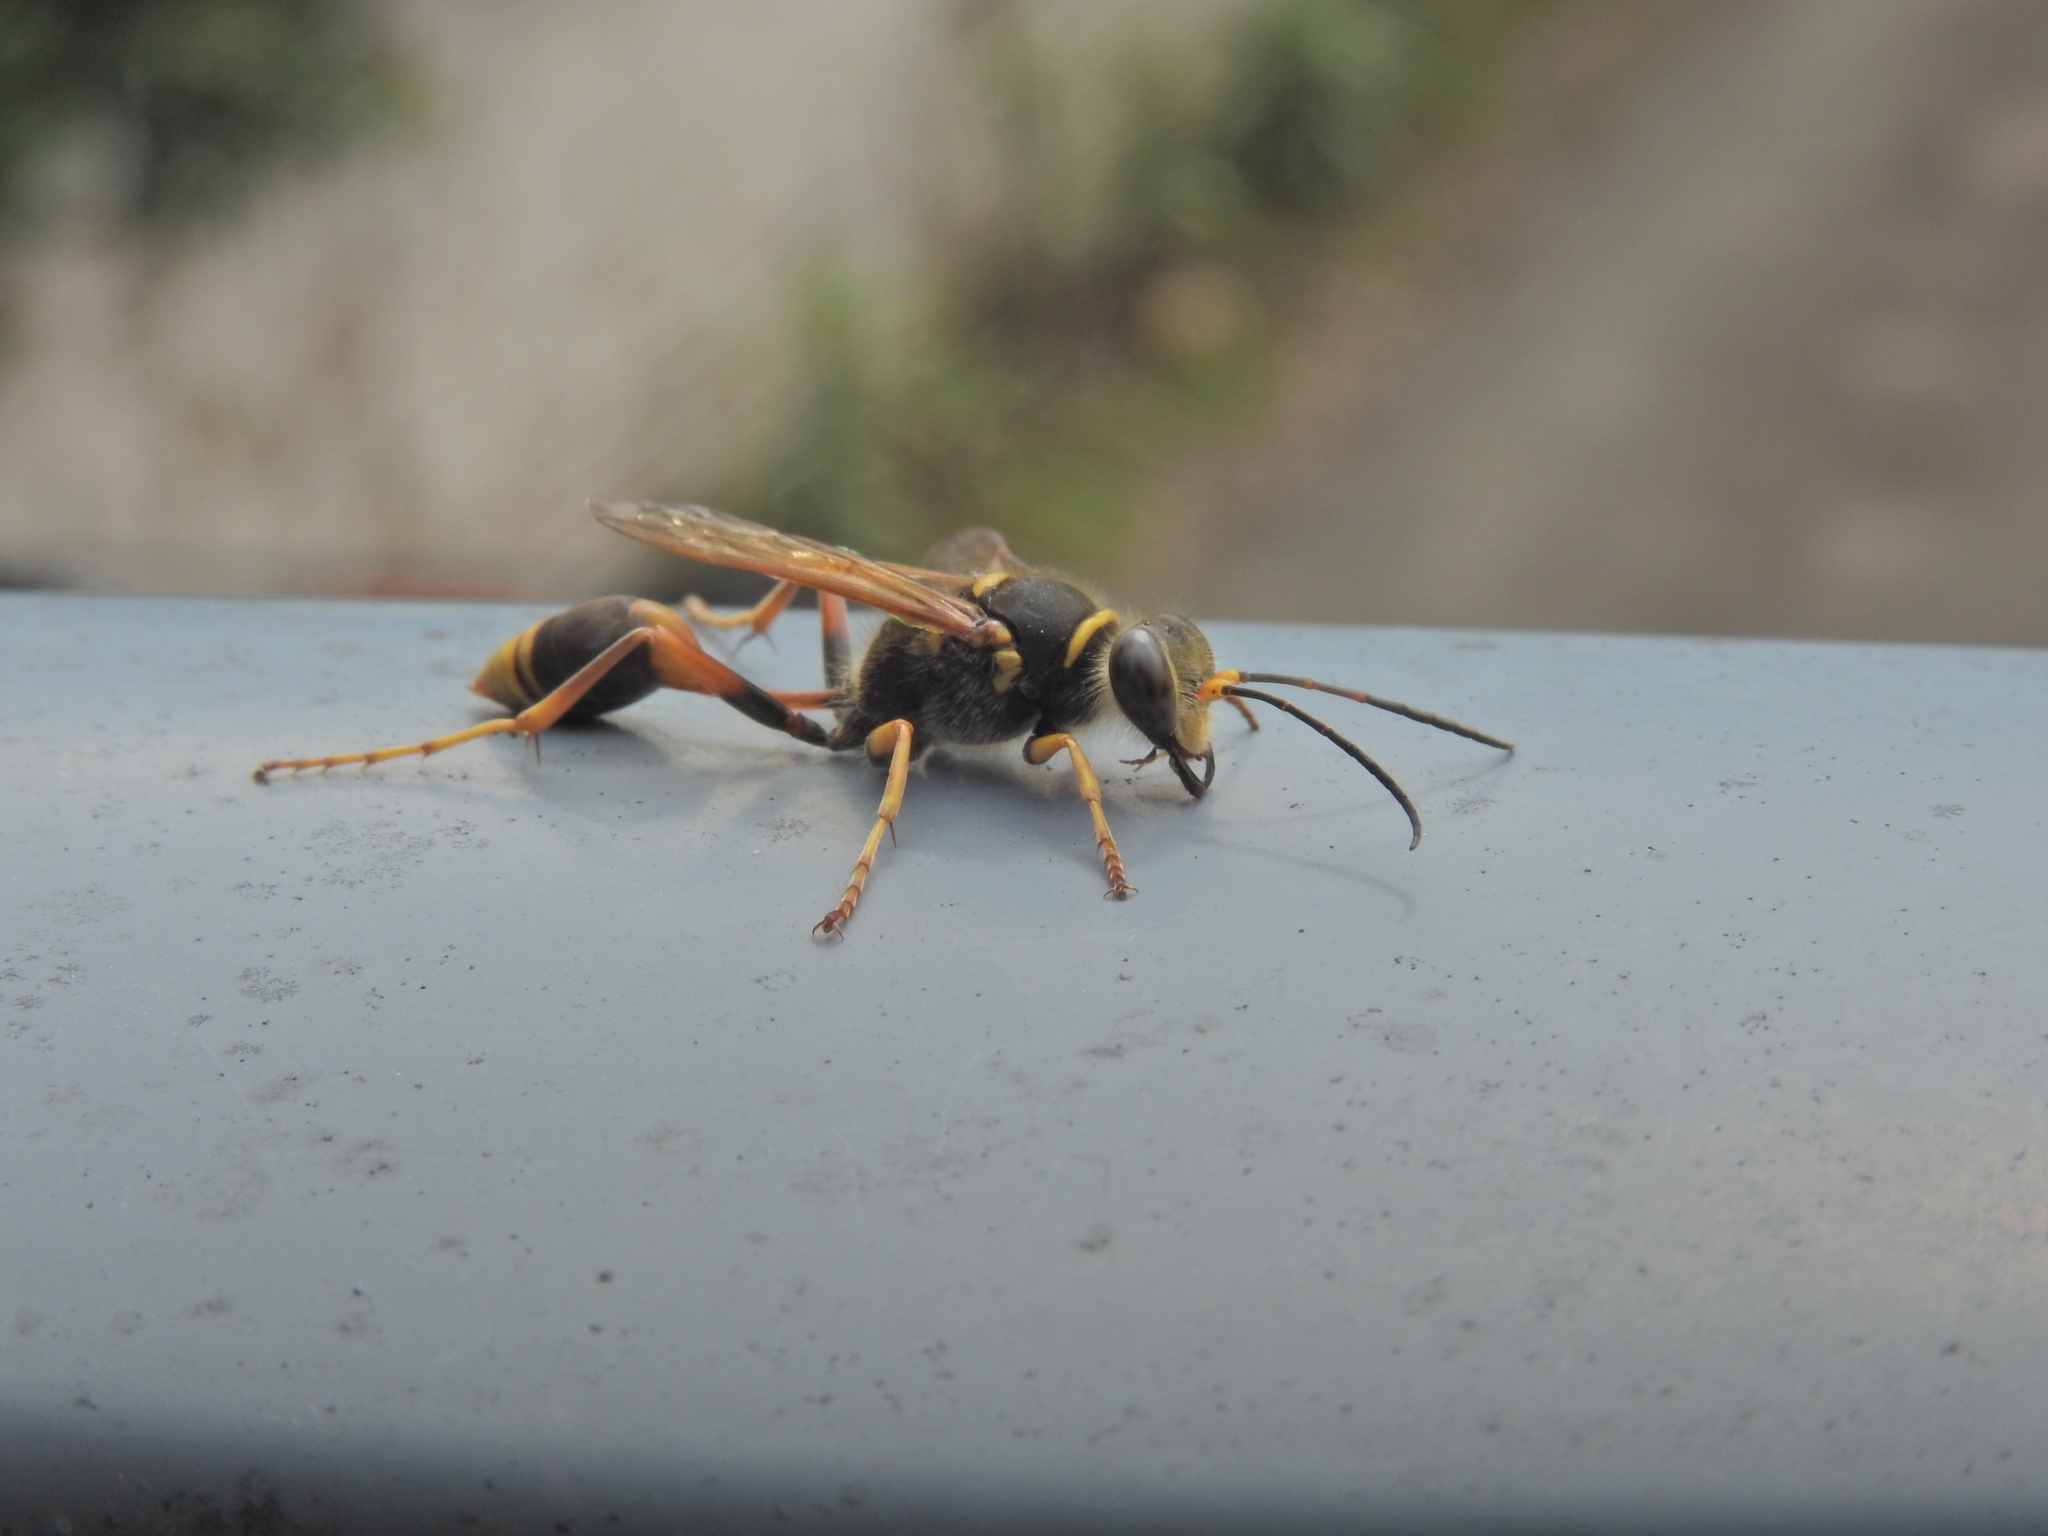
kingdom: Animalia
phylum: Arthropoda
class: Insecta
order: Hymenoptera
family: Sphecidae
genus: Sceliphron
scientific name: Sceliphron formosum
